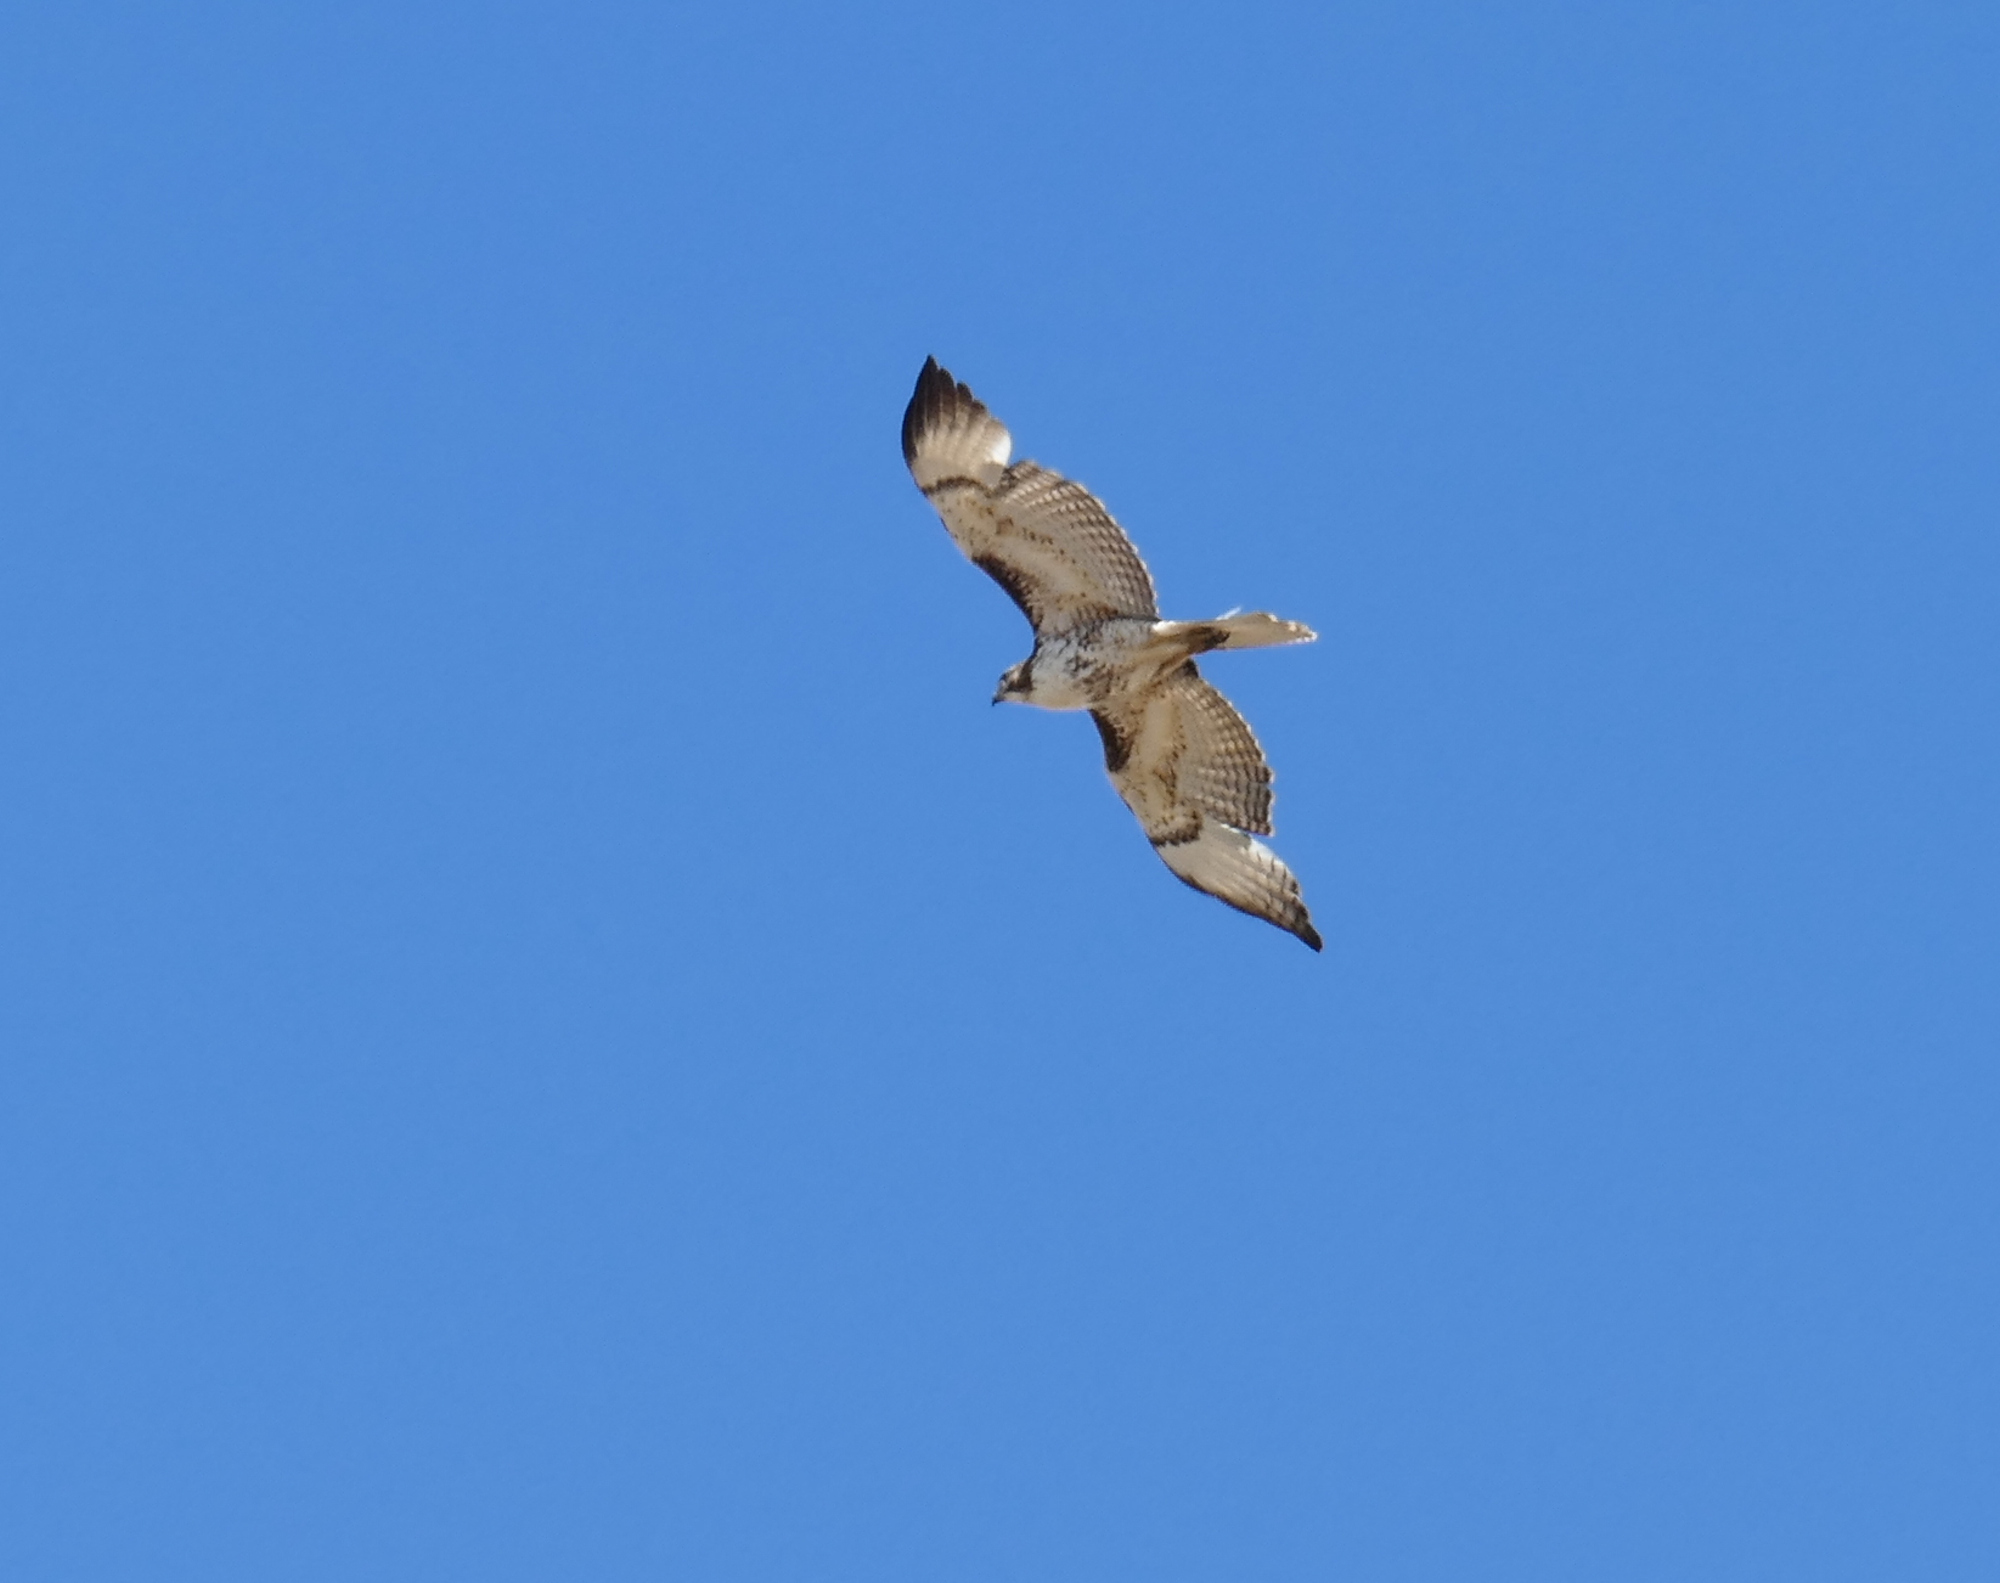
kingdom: Animalia
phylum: Chordata
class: Aves
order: Accipitriformes
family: Accipitridae
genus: Buteo
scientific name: Buteo jamaicensis
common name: Red-tailed hawk
